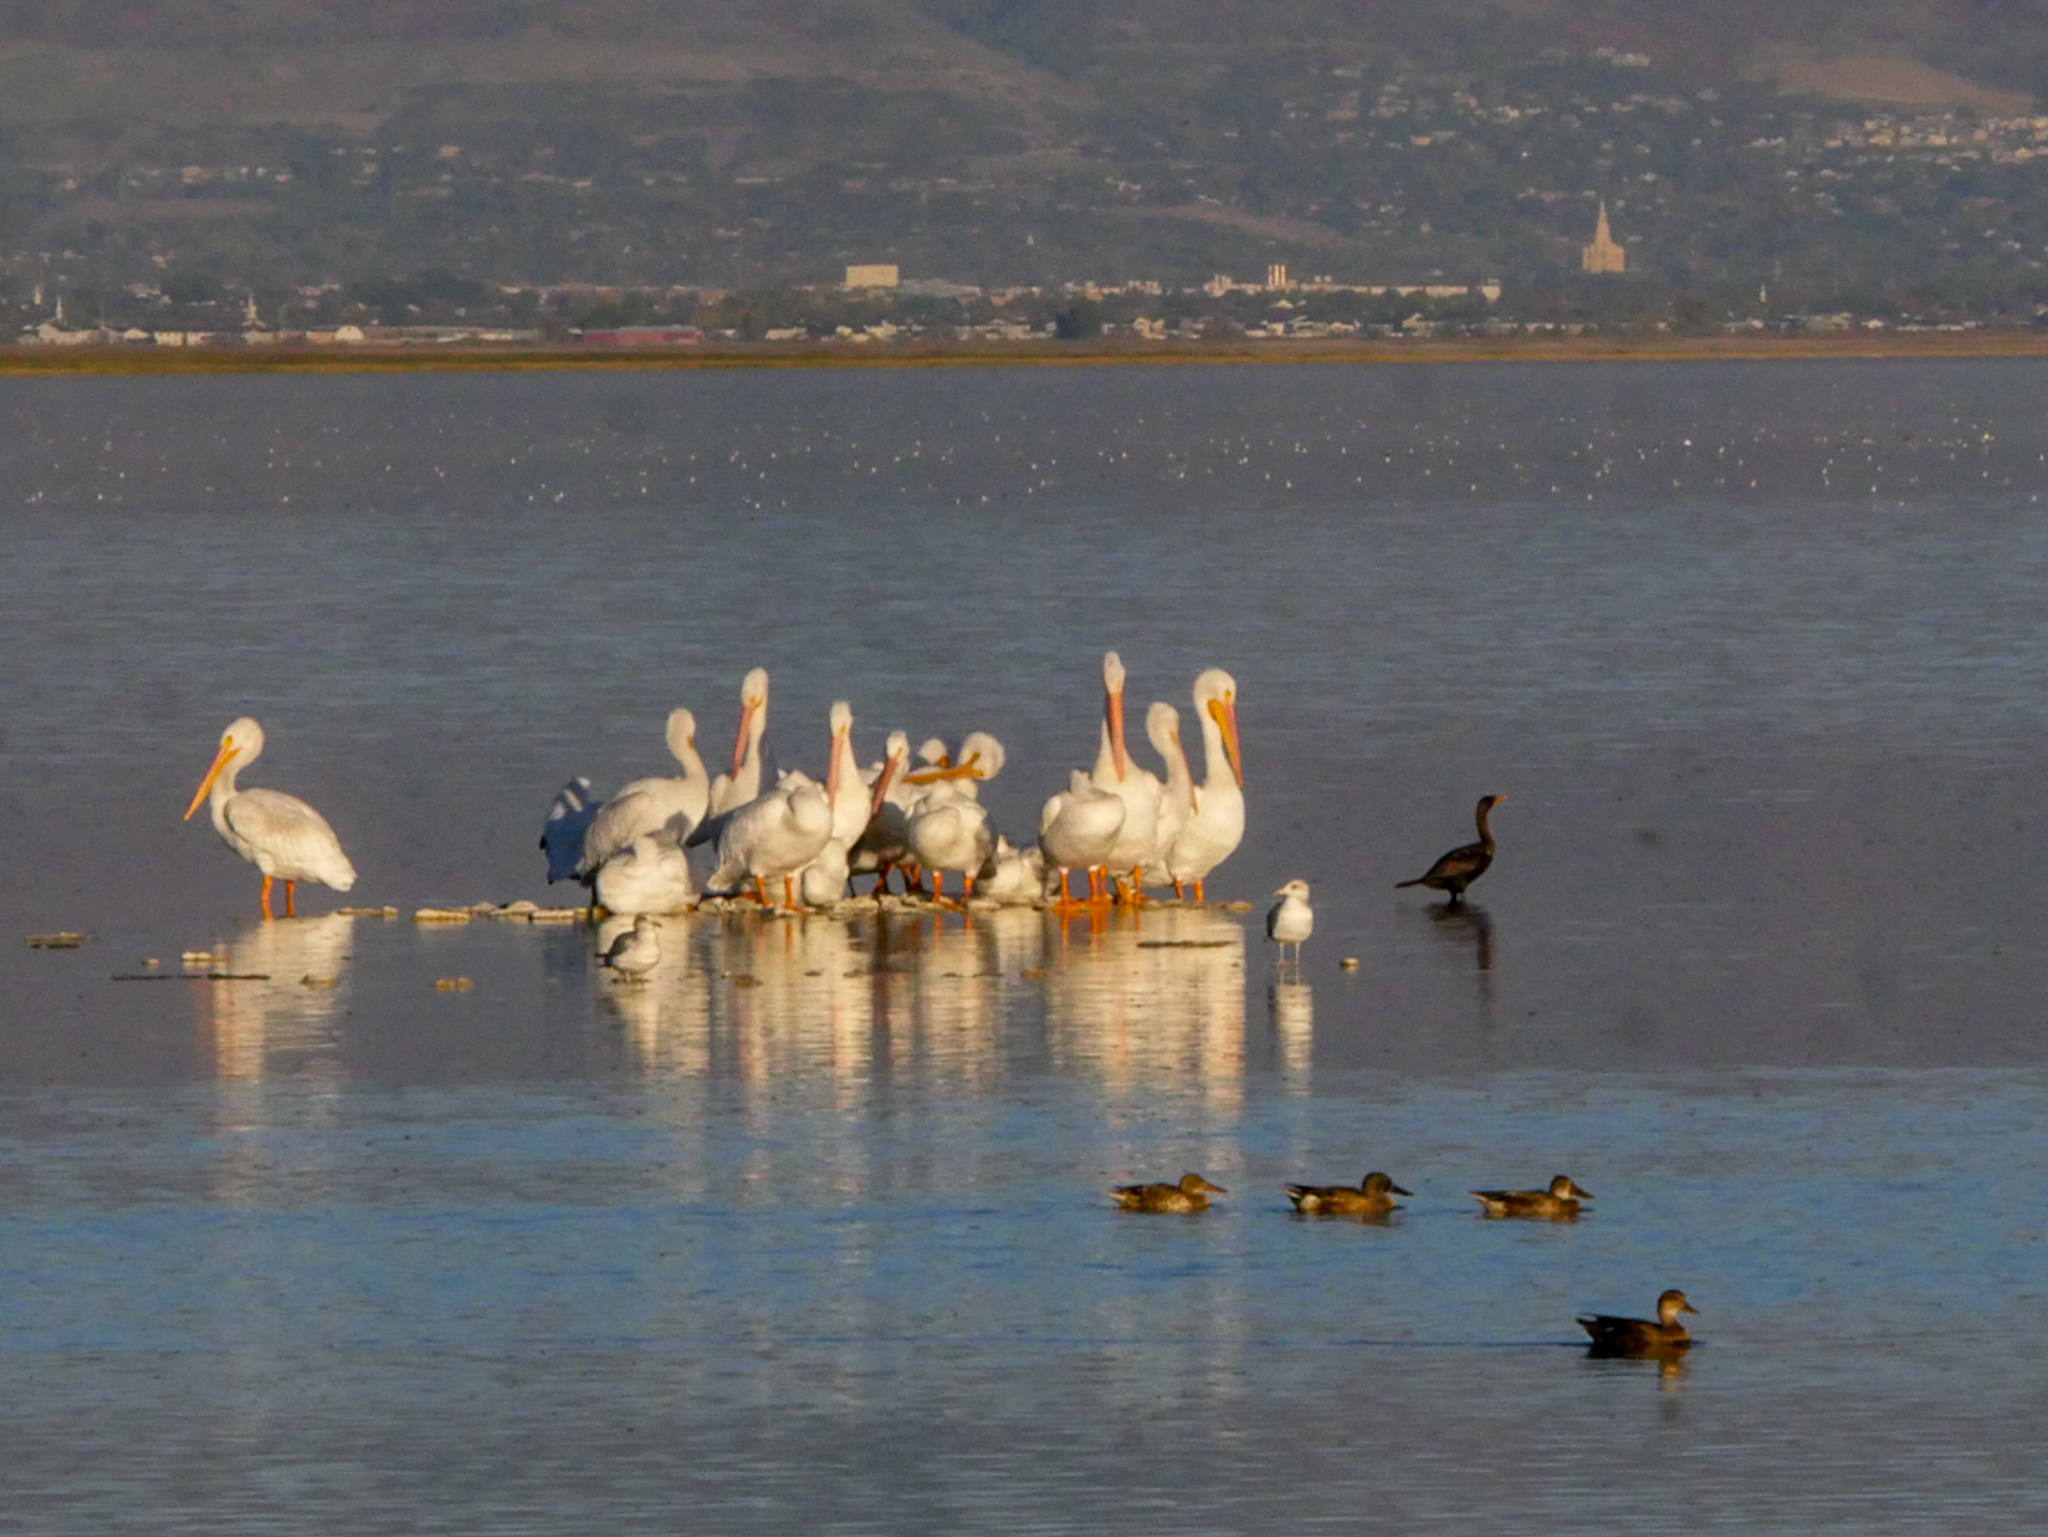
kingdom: Animalia
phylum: Chordata
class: Aves
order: Pelecaniformes
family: Pelecanidae
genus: Pelecanus
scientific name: Pelecanus erythrorhynchos
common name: American white pelican
